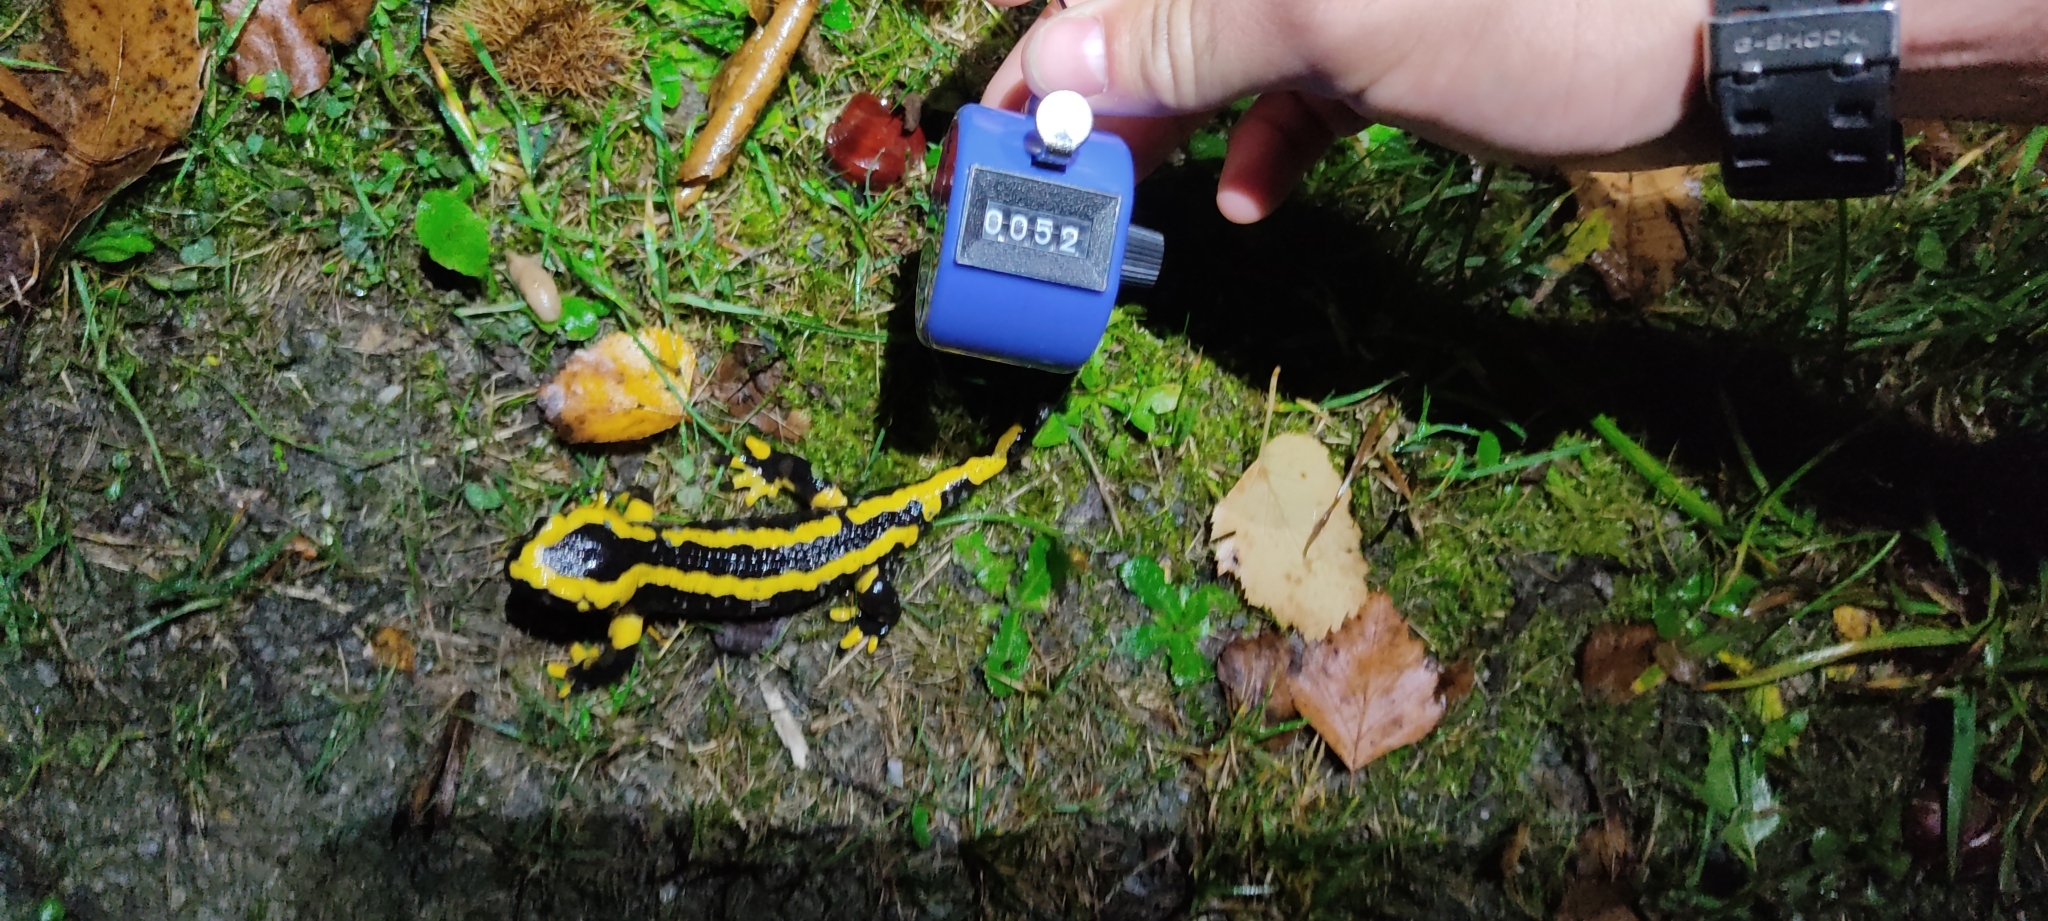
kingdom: Animalia
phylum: Chordata
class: Amphibia
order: Caudata
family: Salamandridae
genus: Salamandra
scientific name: Salamandra salamandra
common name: Fire salamander
